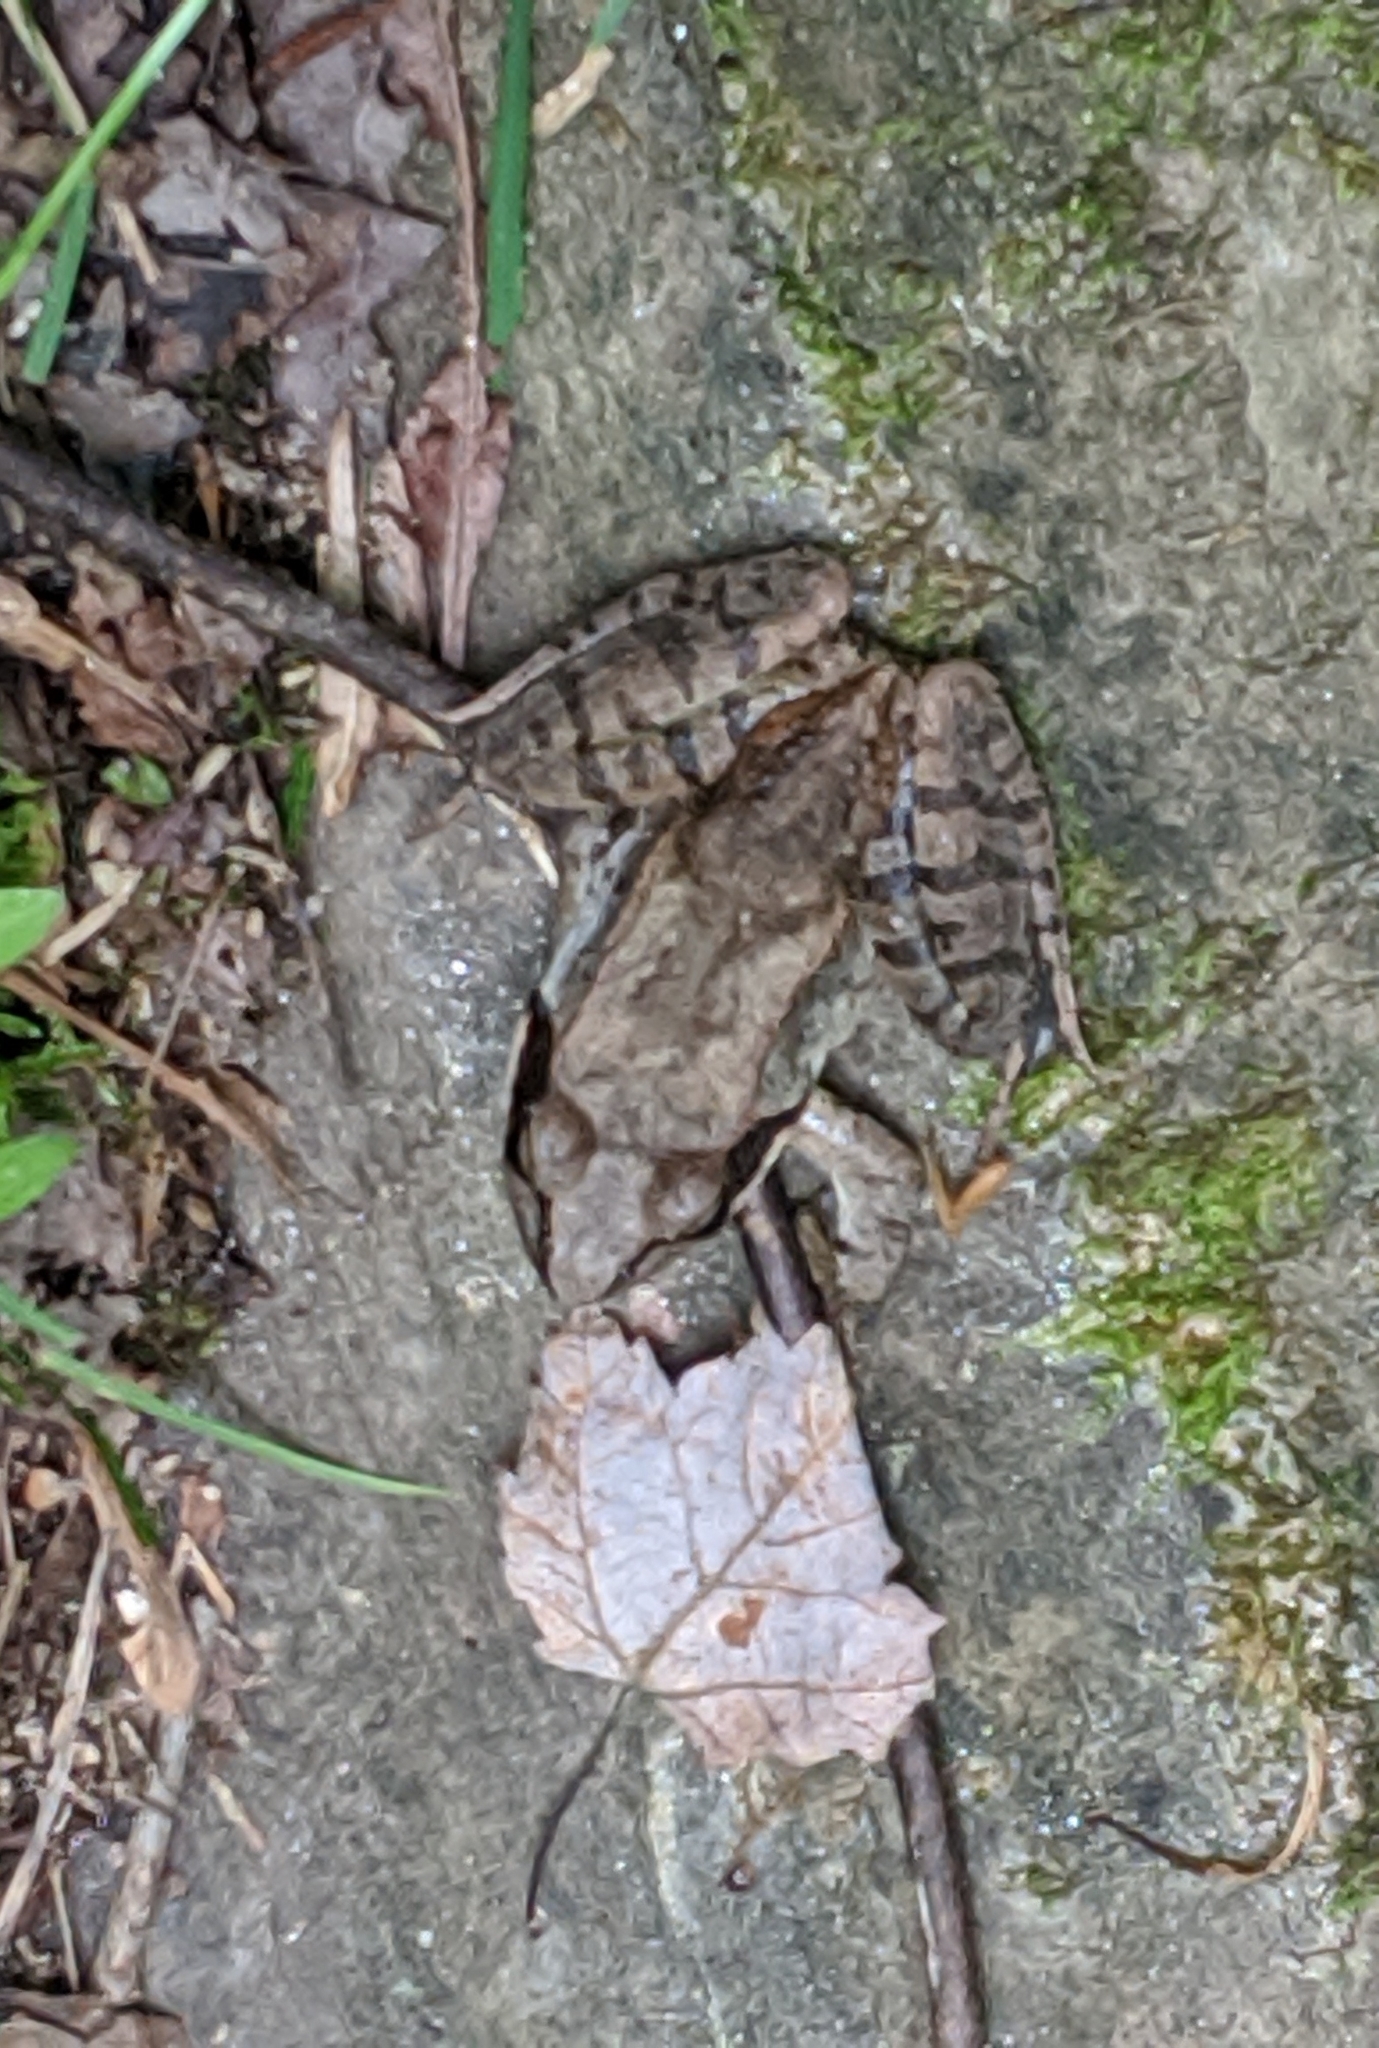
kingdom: Animalia
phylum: Chordata
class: Amphibia
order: Anura
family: Ranidae
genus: Lithobates
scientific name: Lithobates sylvaticus
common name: Wood frog
